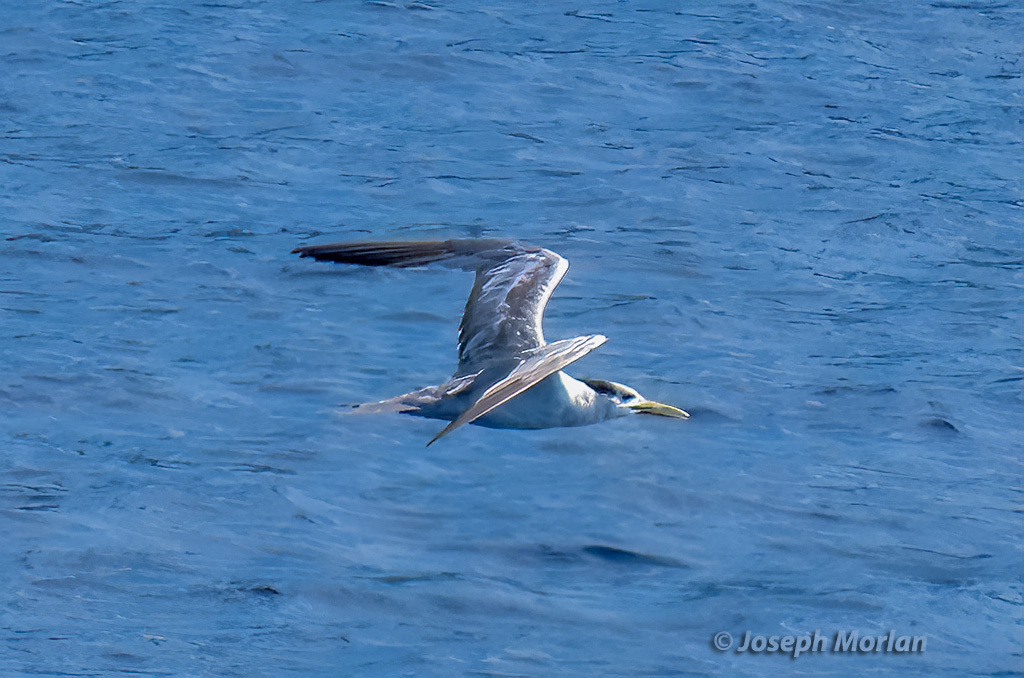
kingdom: Animalia
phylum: Chordata
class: Aves
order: Charadriiformes
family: Laridae
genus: Thalasseus
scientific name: Thalasseus bergii
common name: Greater crested tern
